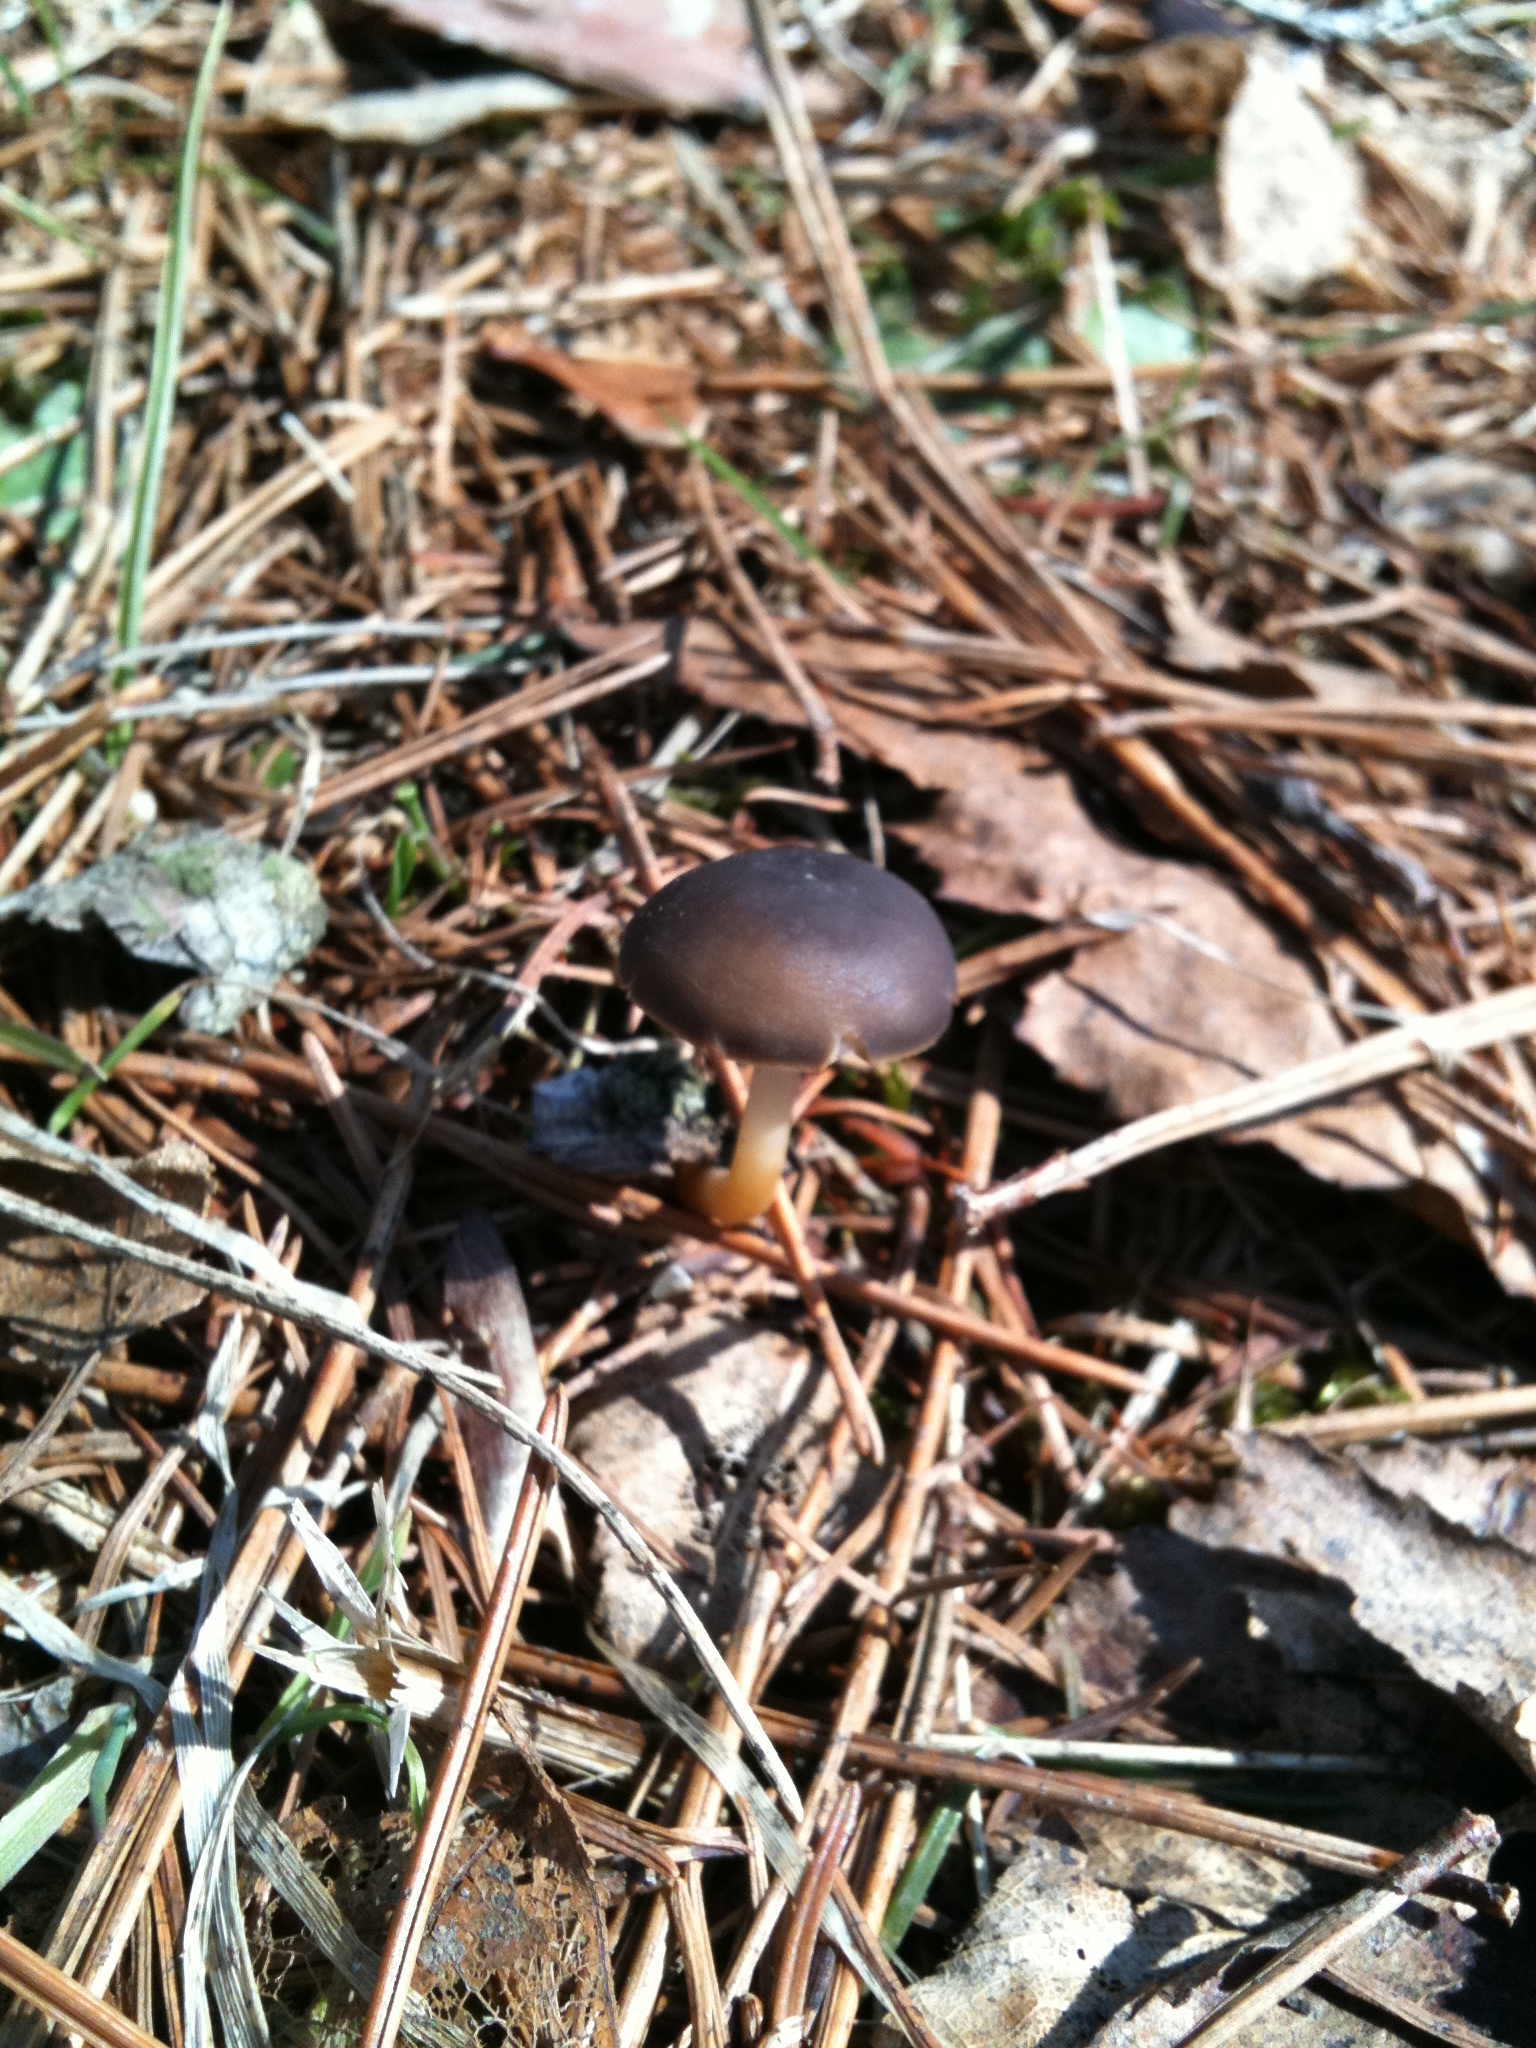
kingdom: Fungi
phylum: Basidiomycota
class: Agaricomycetes
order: Agaricales
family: Physalacriaceae
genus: Strobilurus
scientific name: Strobilurus stephanocystis
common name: Russian conecap
